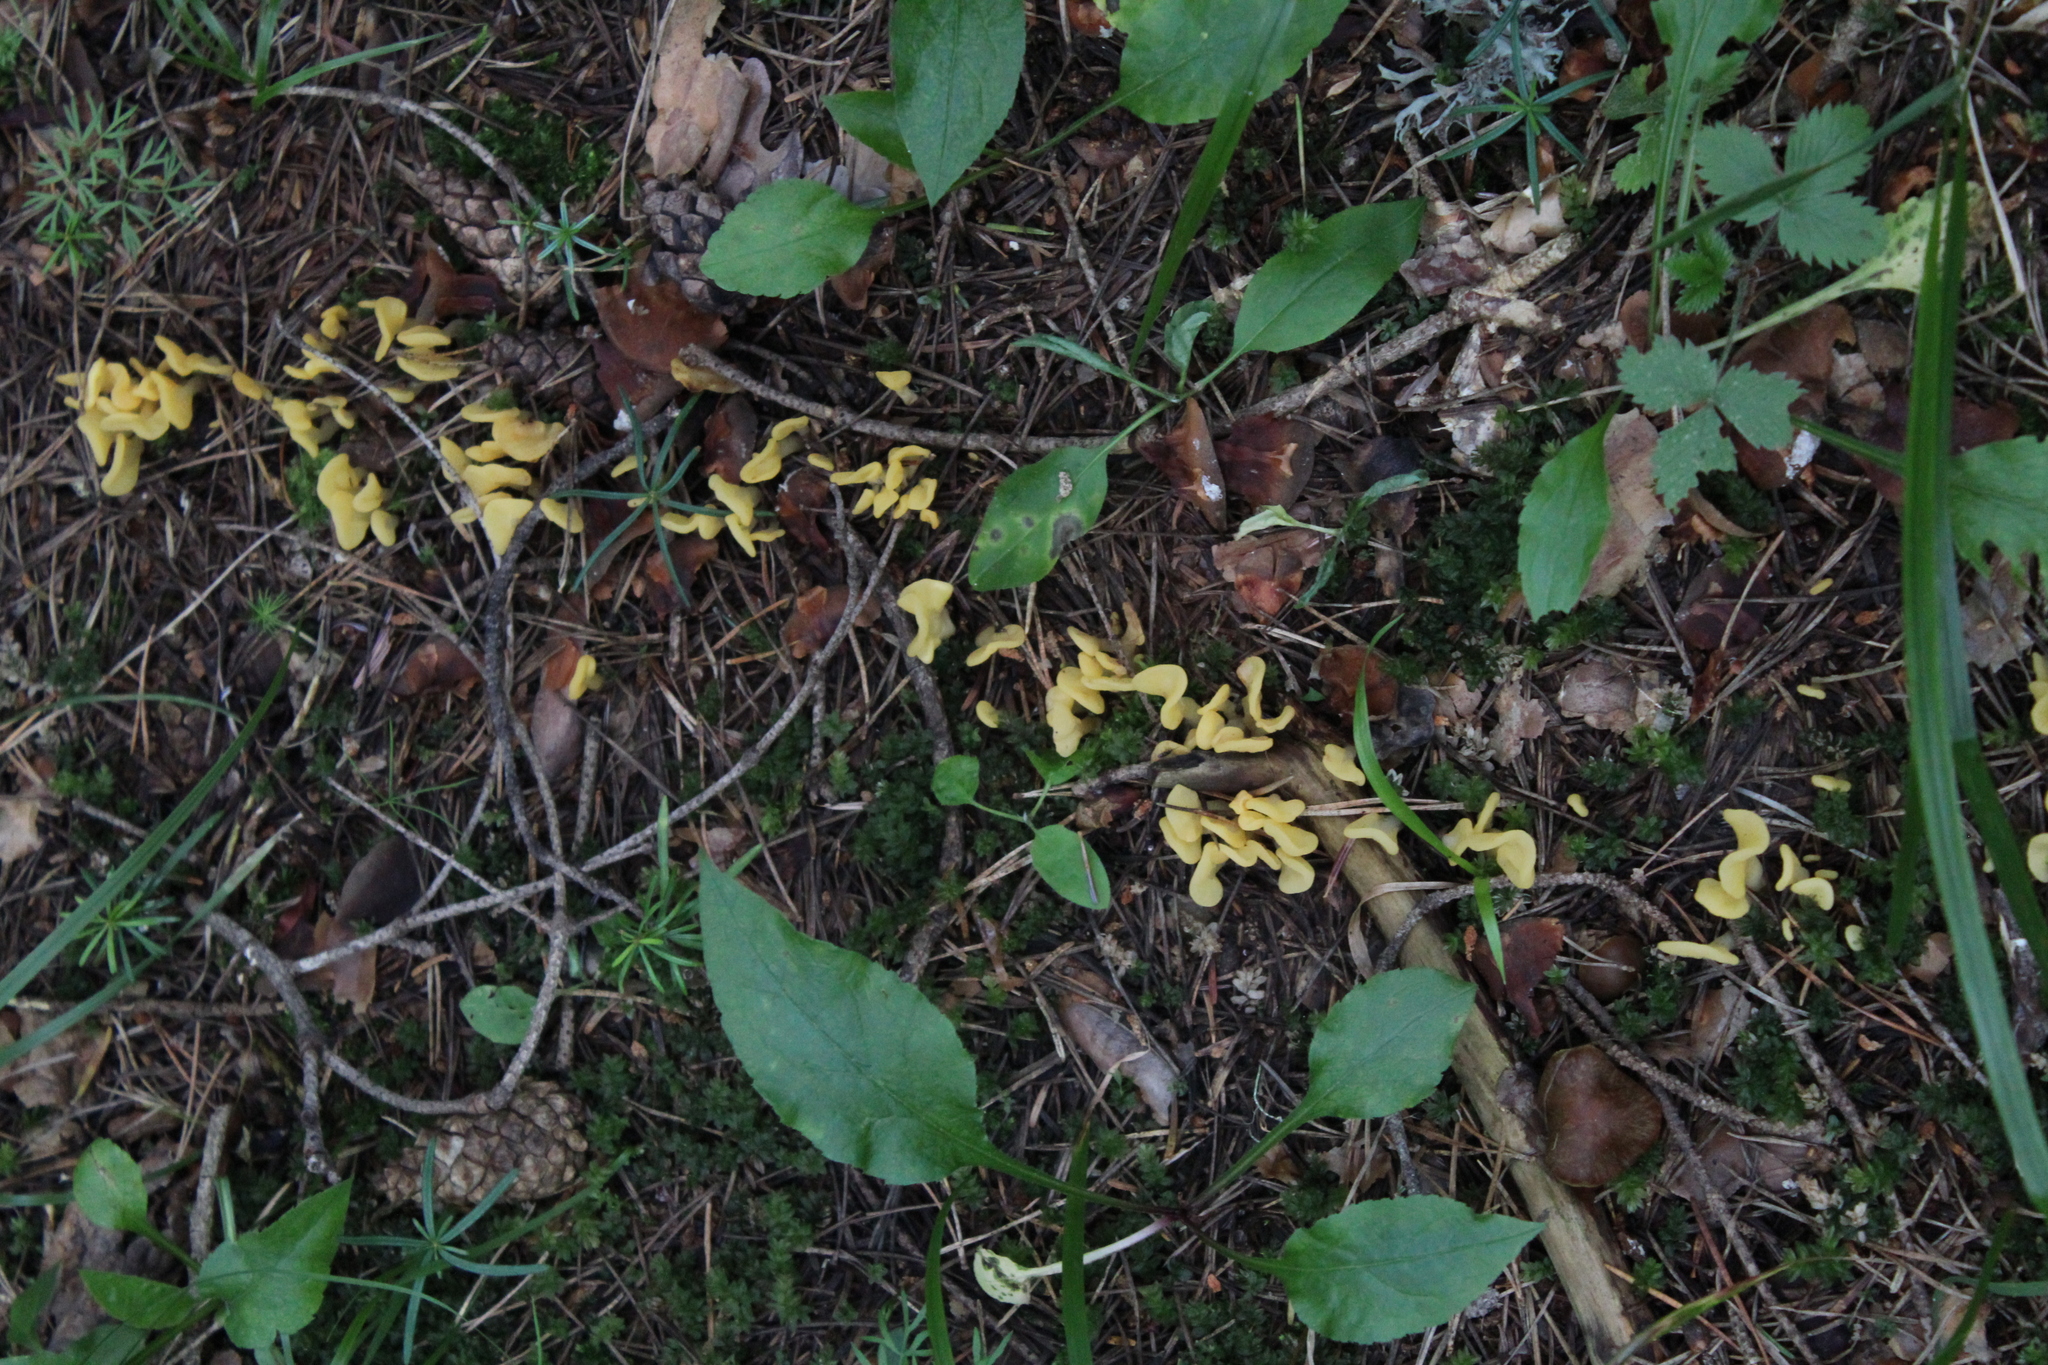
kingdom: Fungi
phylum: Ascomycota
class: Leotiomycetes
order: Rhytismatales
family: Cudoniaceae
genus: Spathularia
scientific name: Spathularia flavida
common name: Yellow fan
